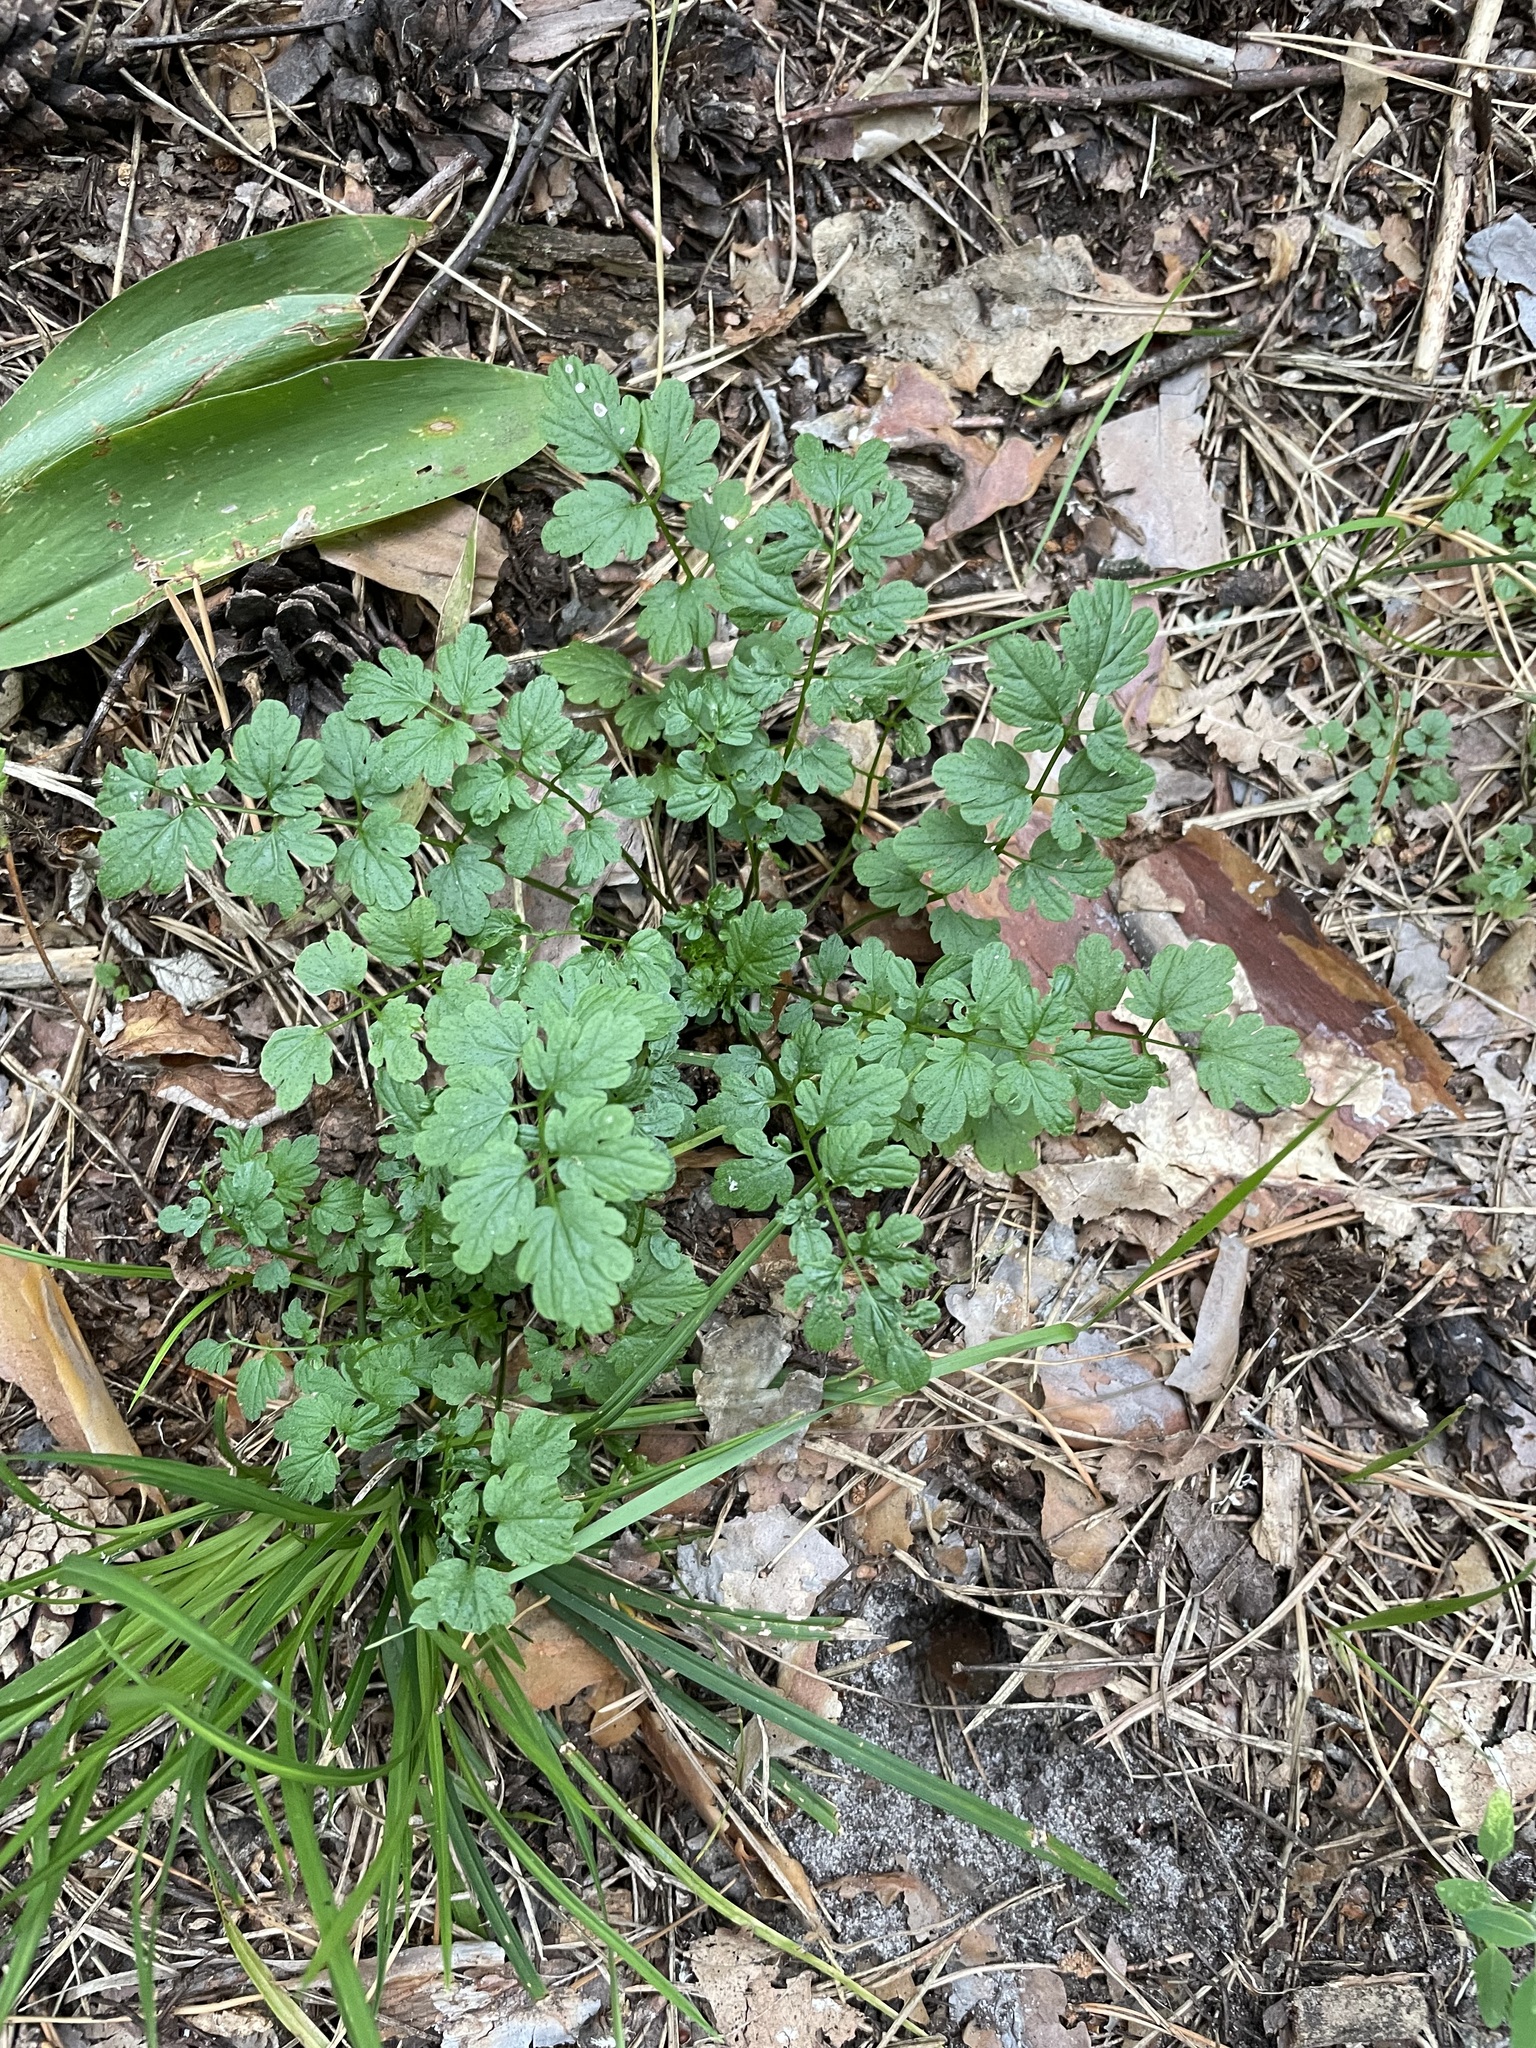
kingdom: Plantae
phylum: Tracheophyta
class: Magnoliopsida
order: Brassicales
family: Brassicaceae
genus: Cardamine
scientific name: Cardamine impatiens
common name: Narrow-leaved bitter-cress
